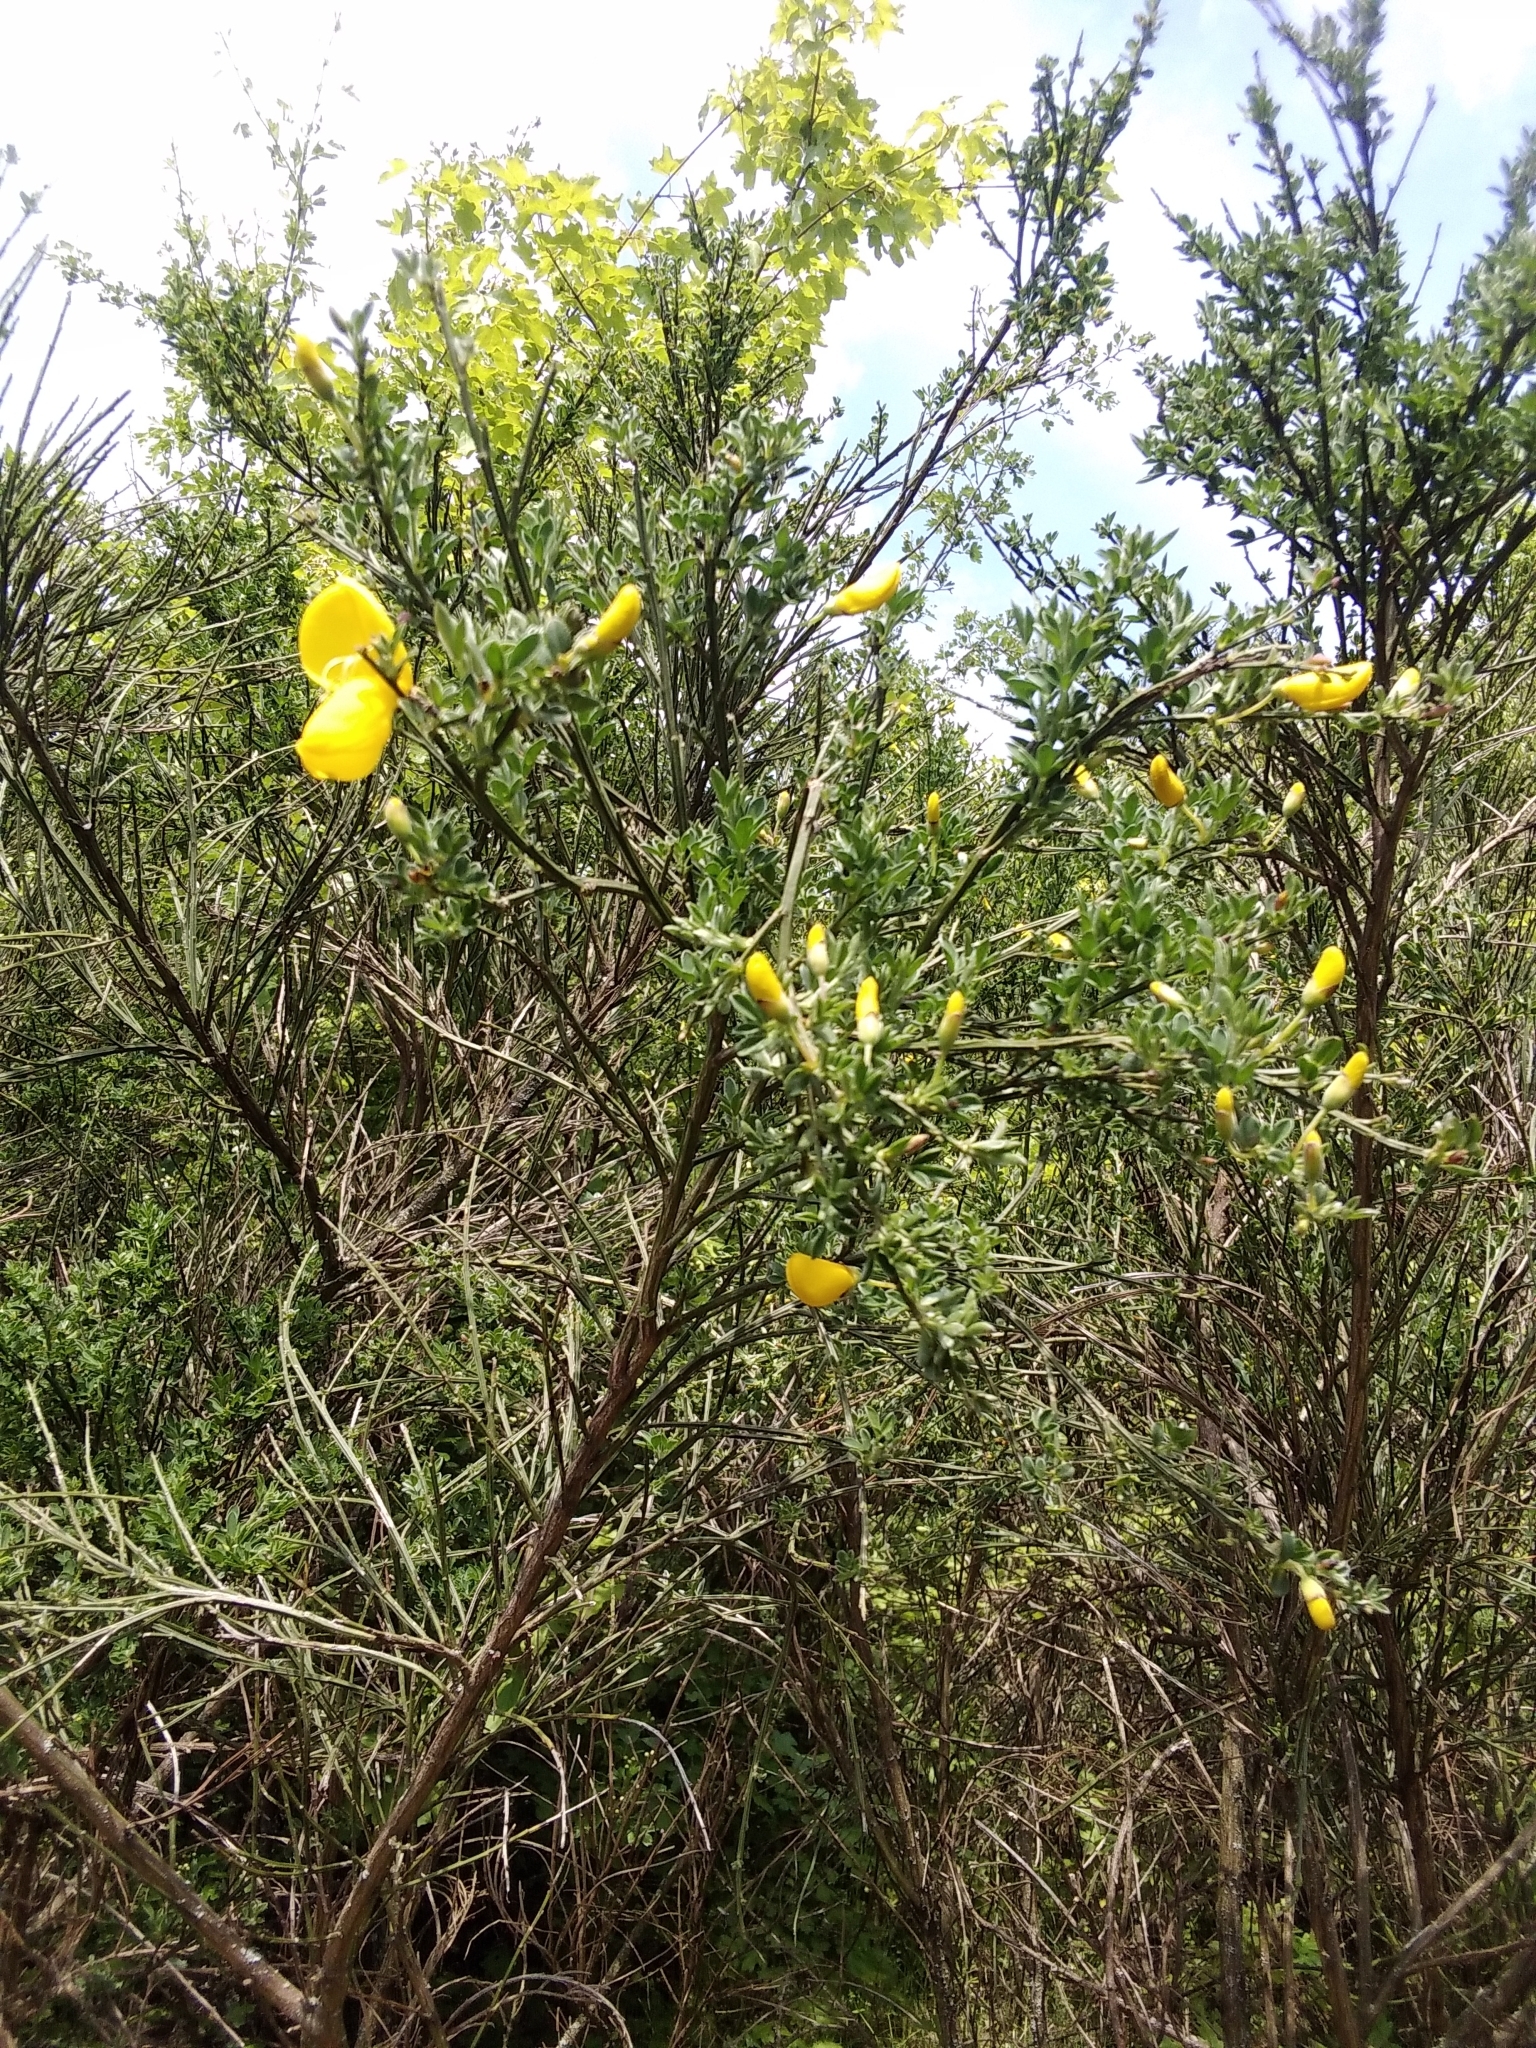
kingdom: Plantae
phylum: Tracheophyta
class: Magnoliopsida
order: Fabales
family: Fabaceae
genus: Cytisus
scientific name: Cytisus scoparius
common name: Scotch broom
